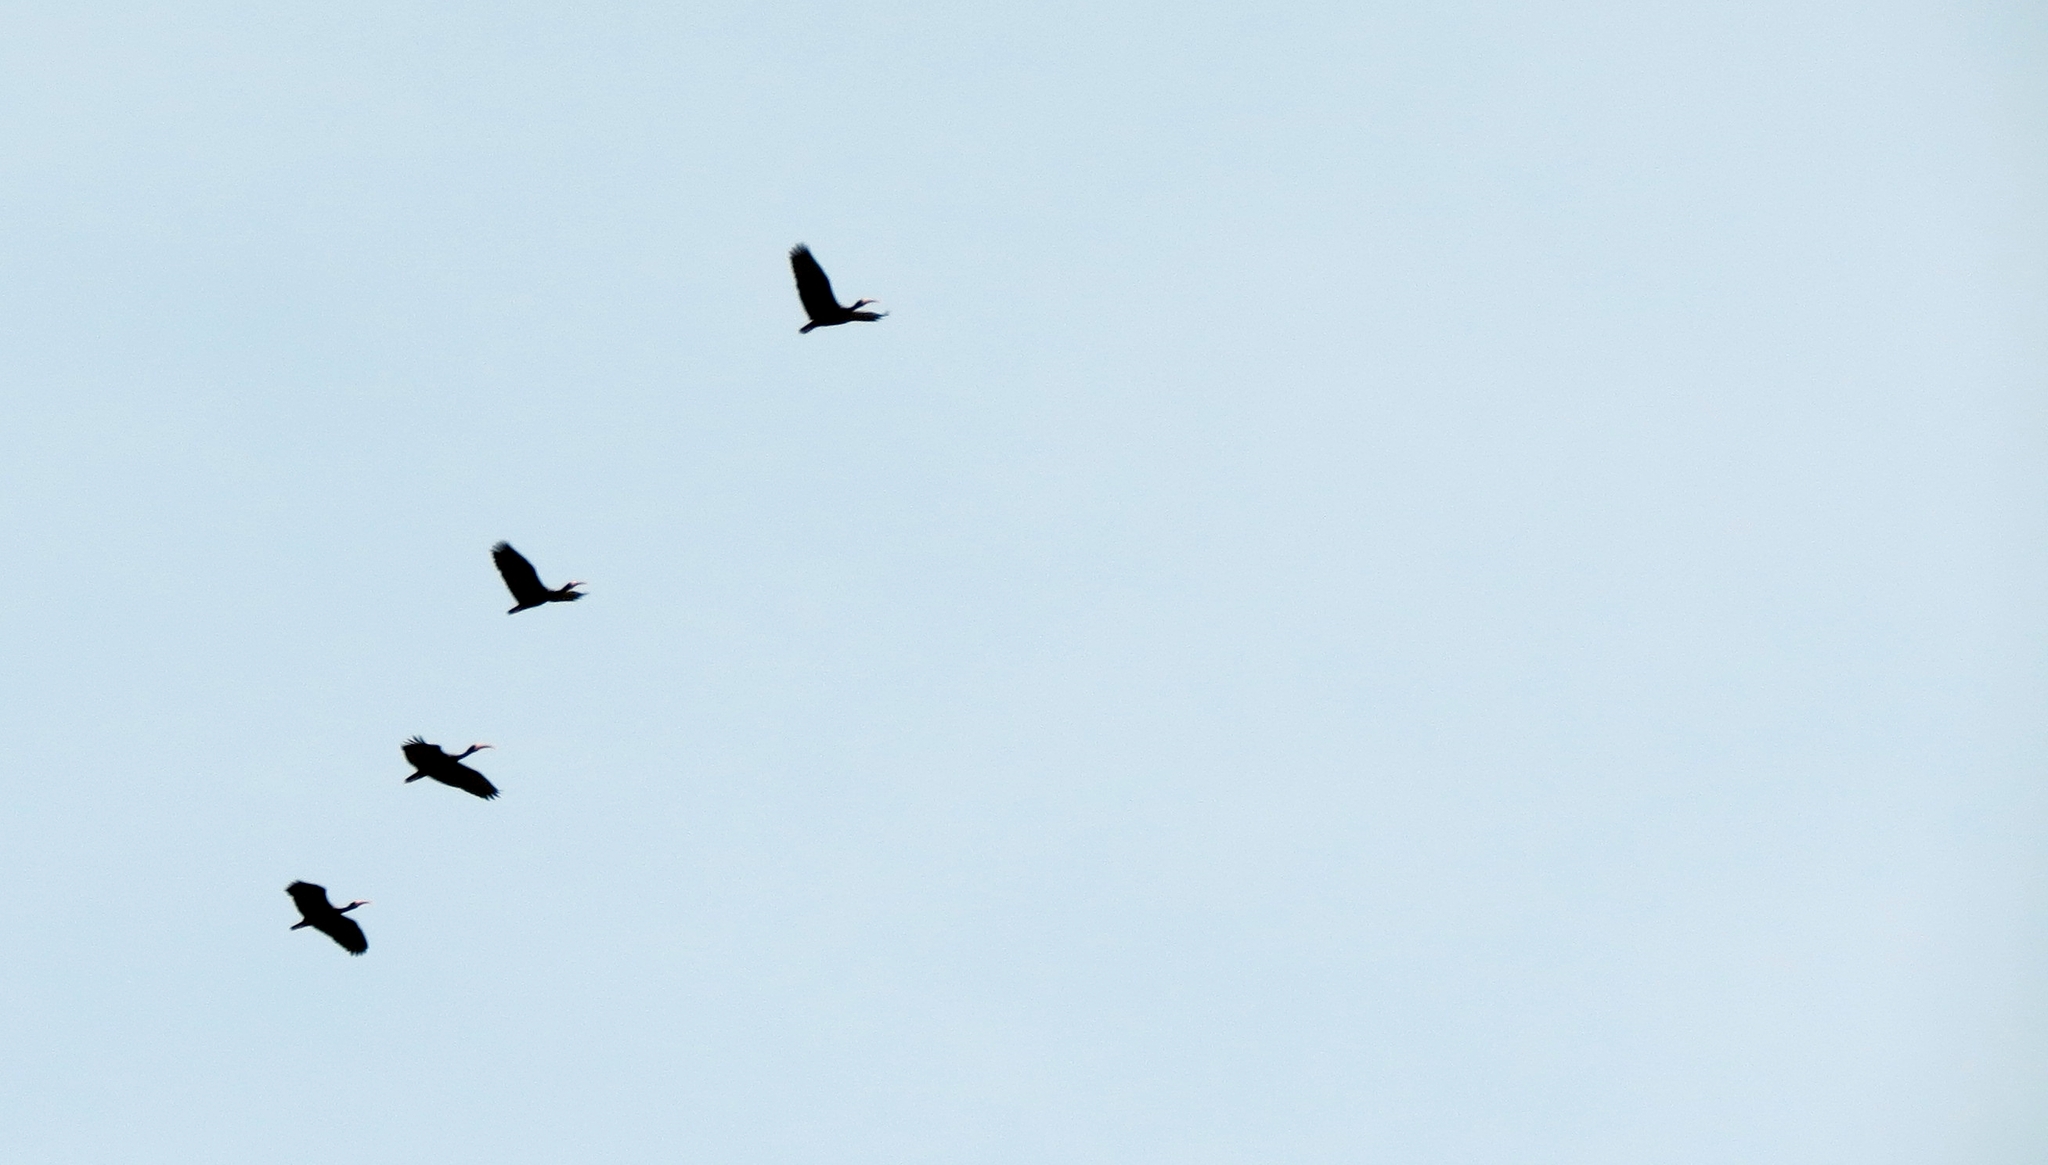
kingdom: Animalia
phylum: Chordata
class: Aves
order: Pelecaniformes
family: Threskiornithidae
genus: Phimosus
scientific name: Phimosus infuscatus
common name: Bare-faced ibis
